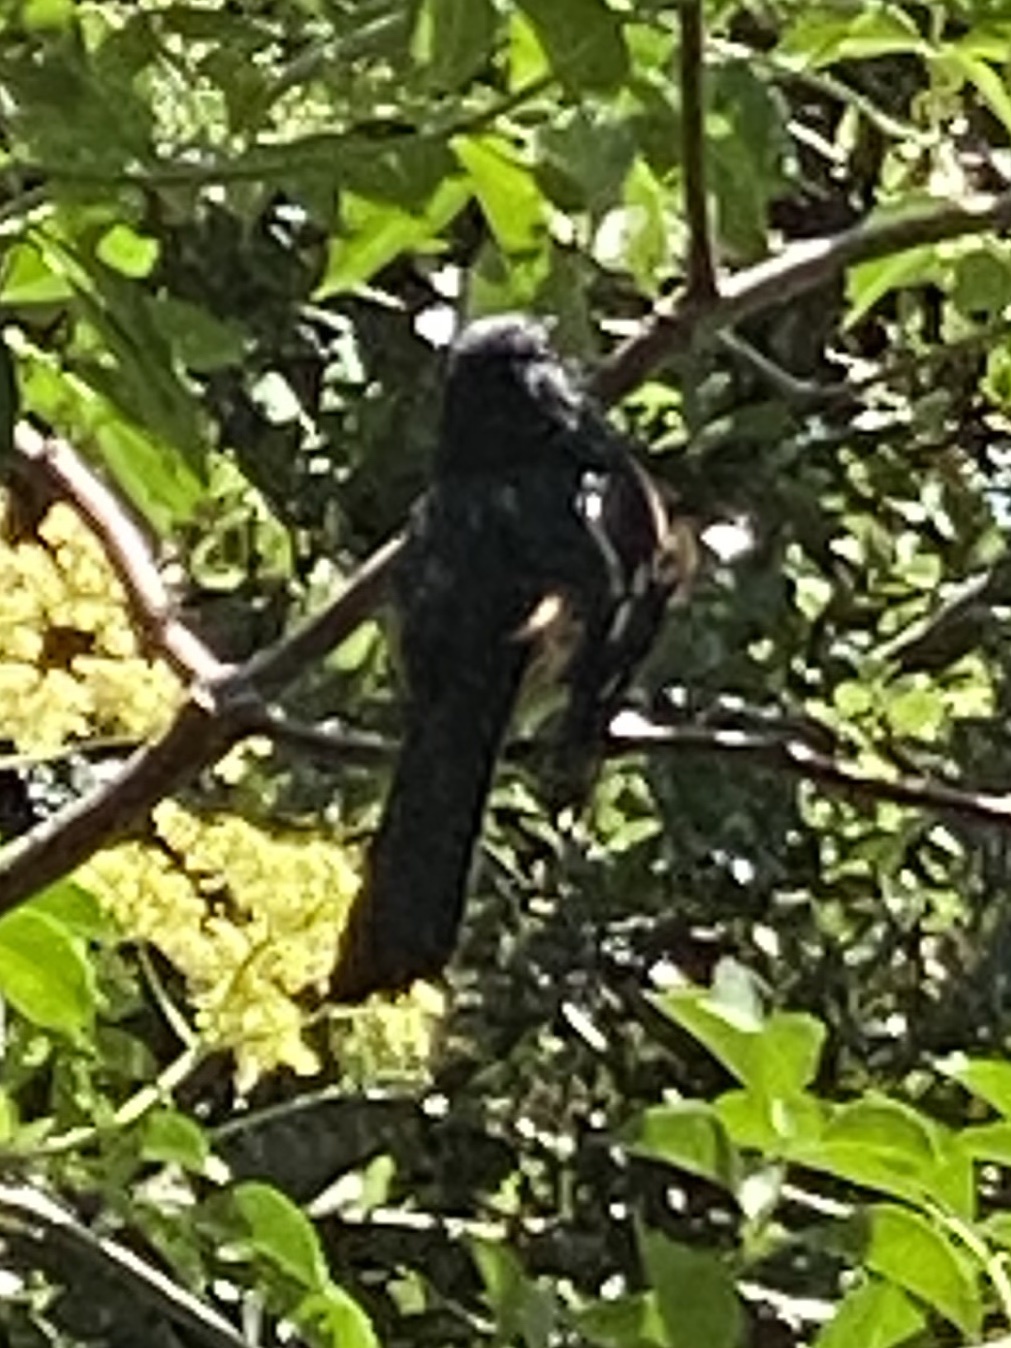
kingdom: Animalia
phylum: Chordata
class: Aves
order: Passeriformes
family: Passerellidae
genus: Pipilo
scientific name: Pipilo maculatus
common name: Spotted towhee
